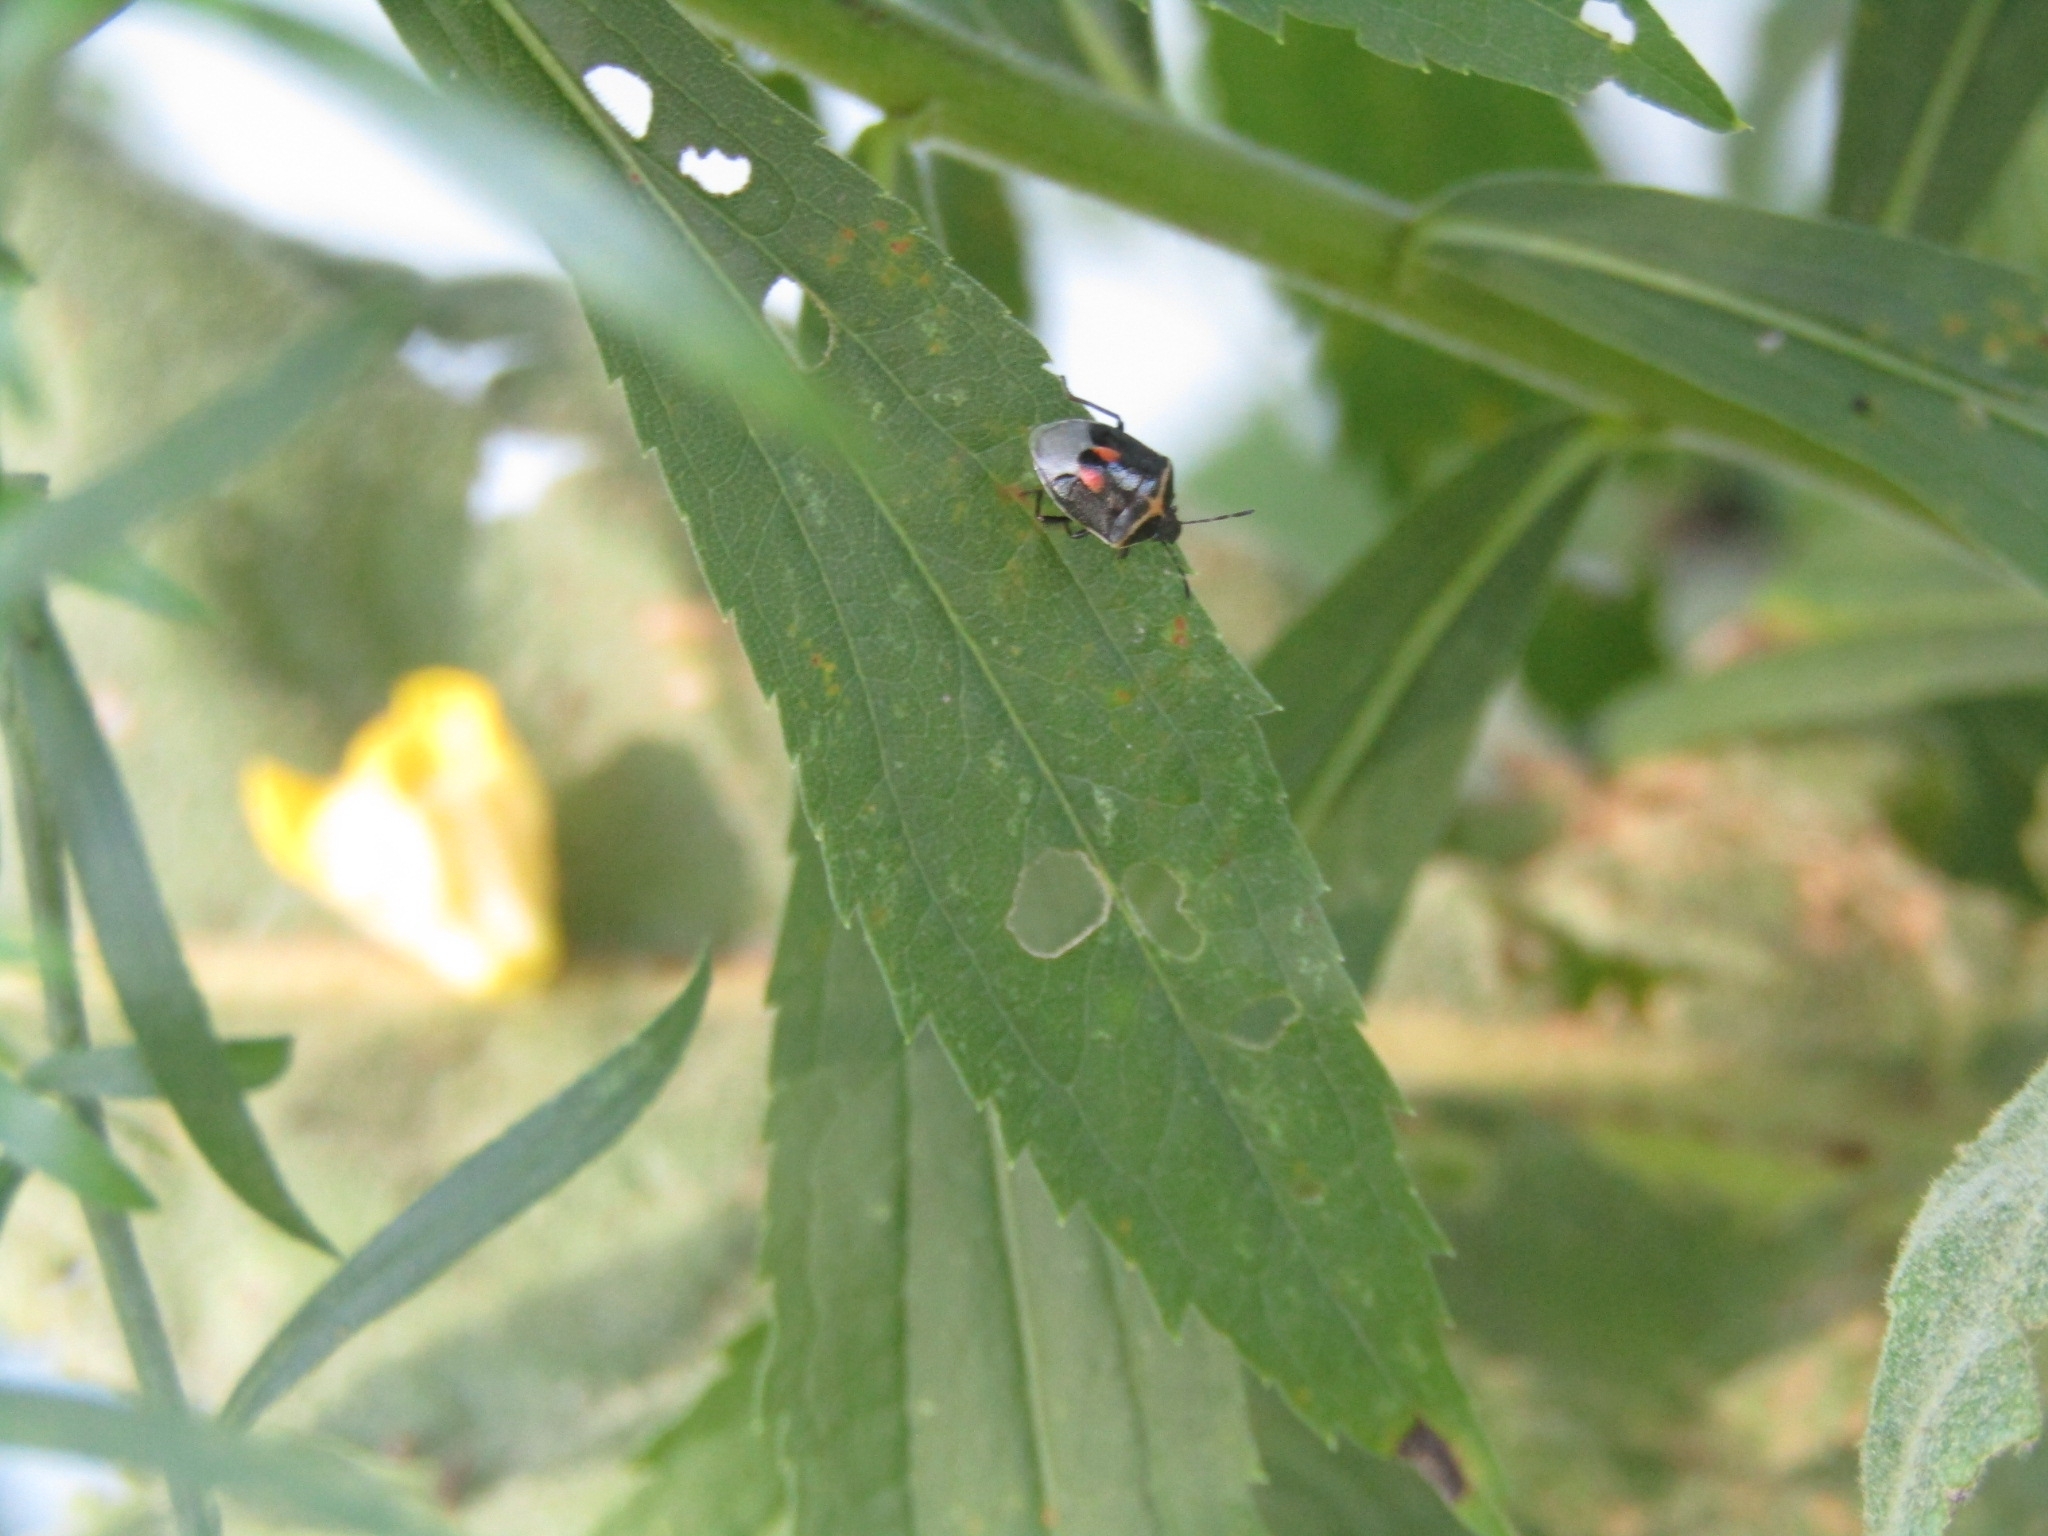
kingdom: Animalia
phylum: Arthropoda
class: Insecta
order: Hemiptera
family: Pentatomidae
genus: Cosmopepla
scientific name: Cosmopepla lintneriana
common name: Twice-stabbed stink bug
